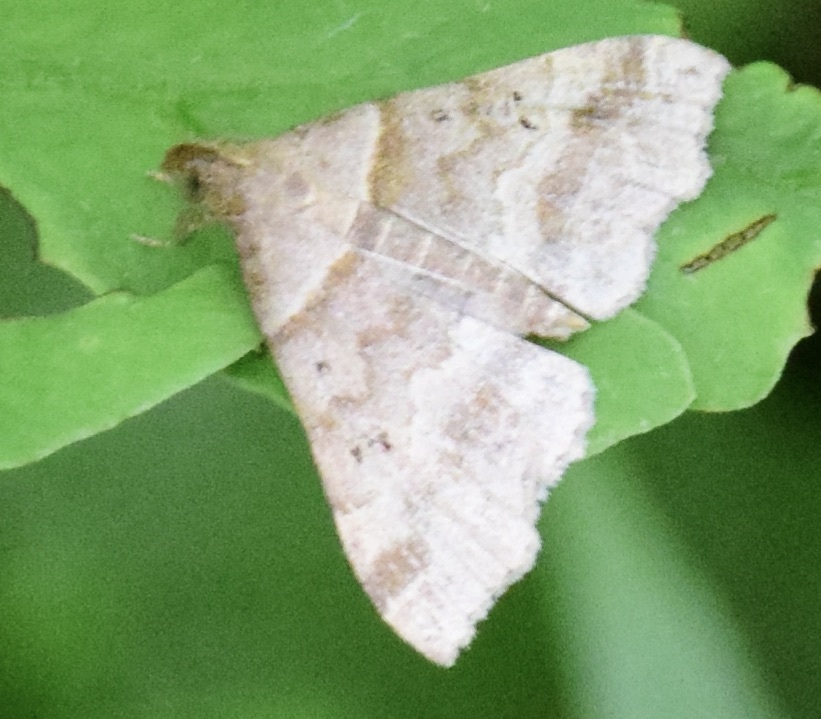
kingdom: Animalia
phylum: Arthropoda
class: Insecta
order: Lepidoptera
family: Erebidae
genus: Phaeolita
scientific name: Phaeolita pyramusalis
